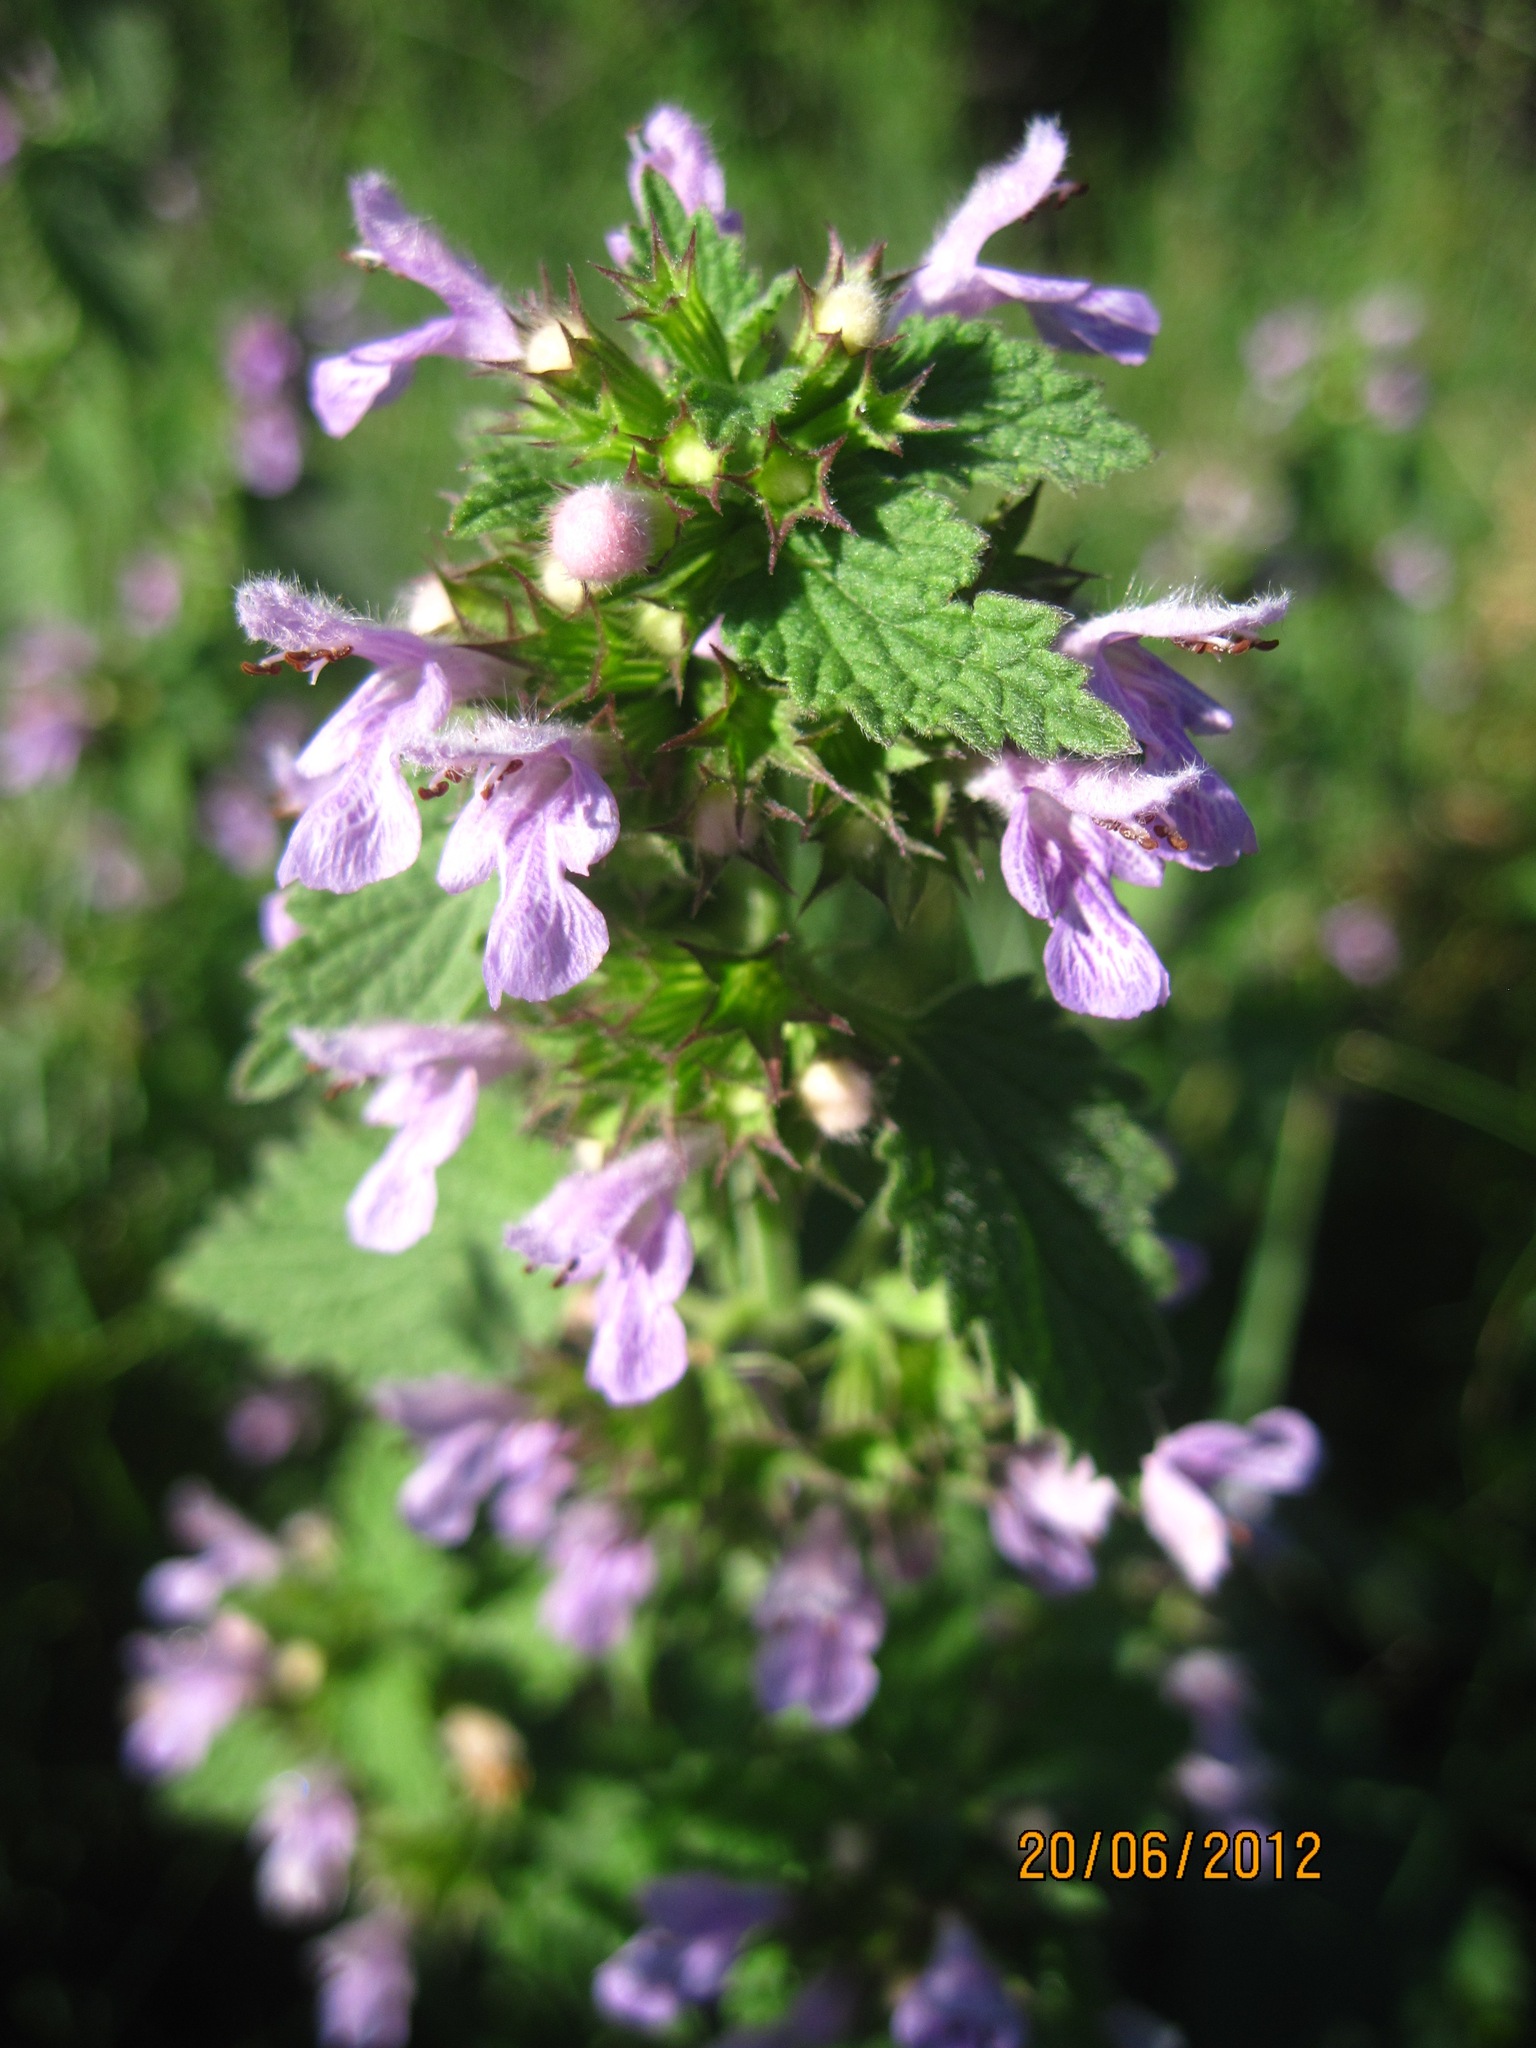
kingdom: Plantae
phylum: Tracheophyta
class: Magnoliopsida
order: Lamiales
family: Lamiaceae
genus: Ballota
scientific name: Ballota nigra
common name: Black horehound
